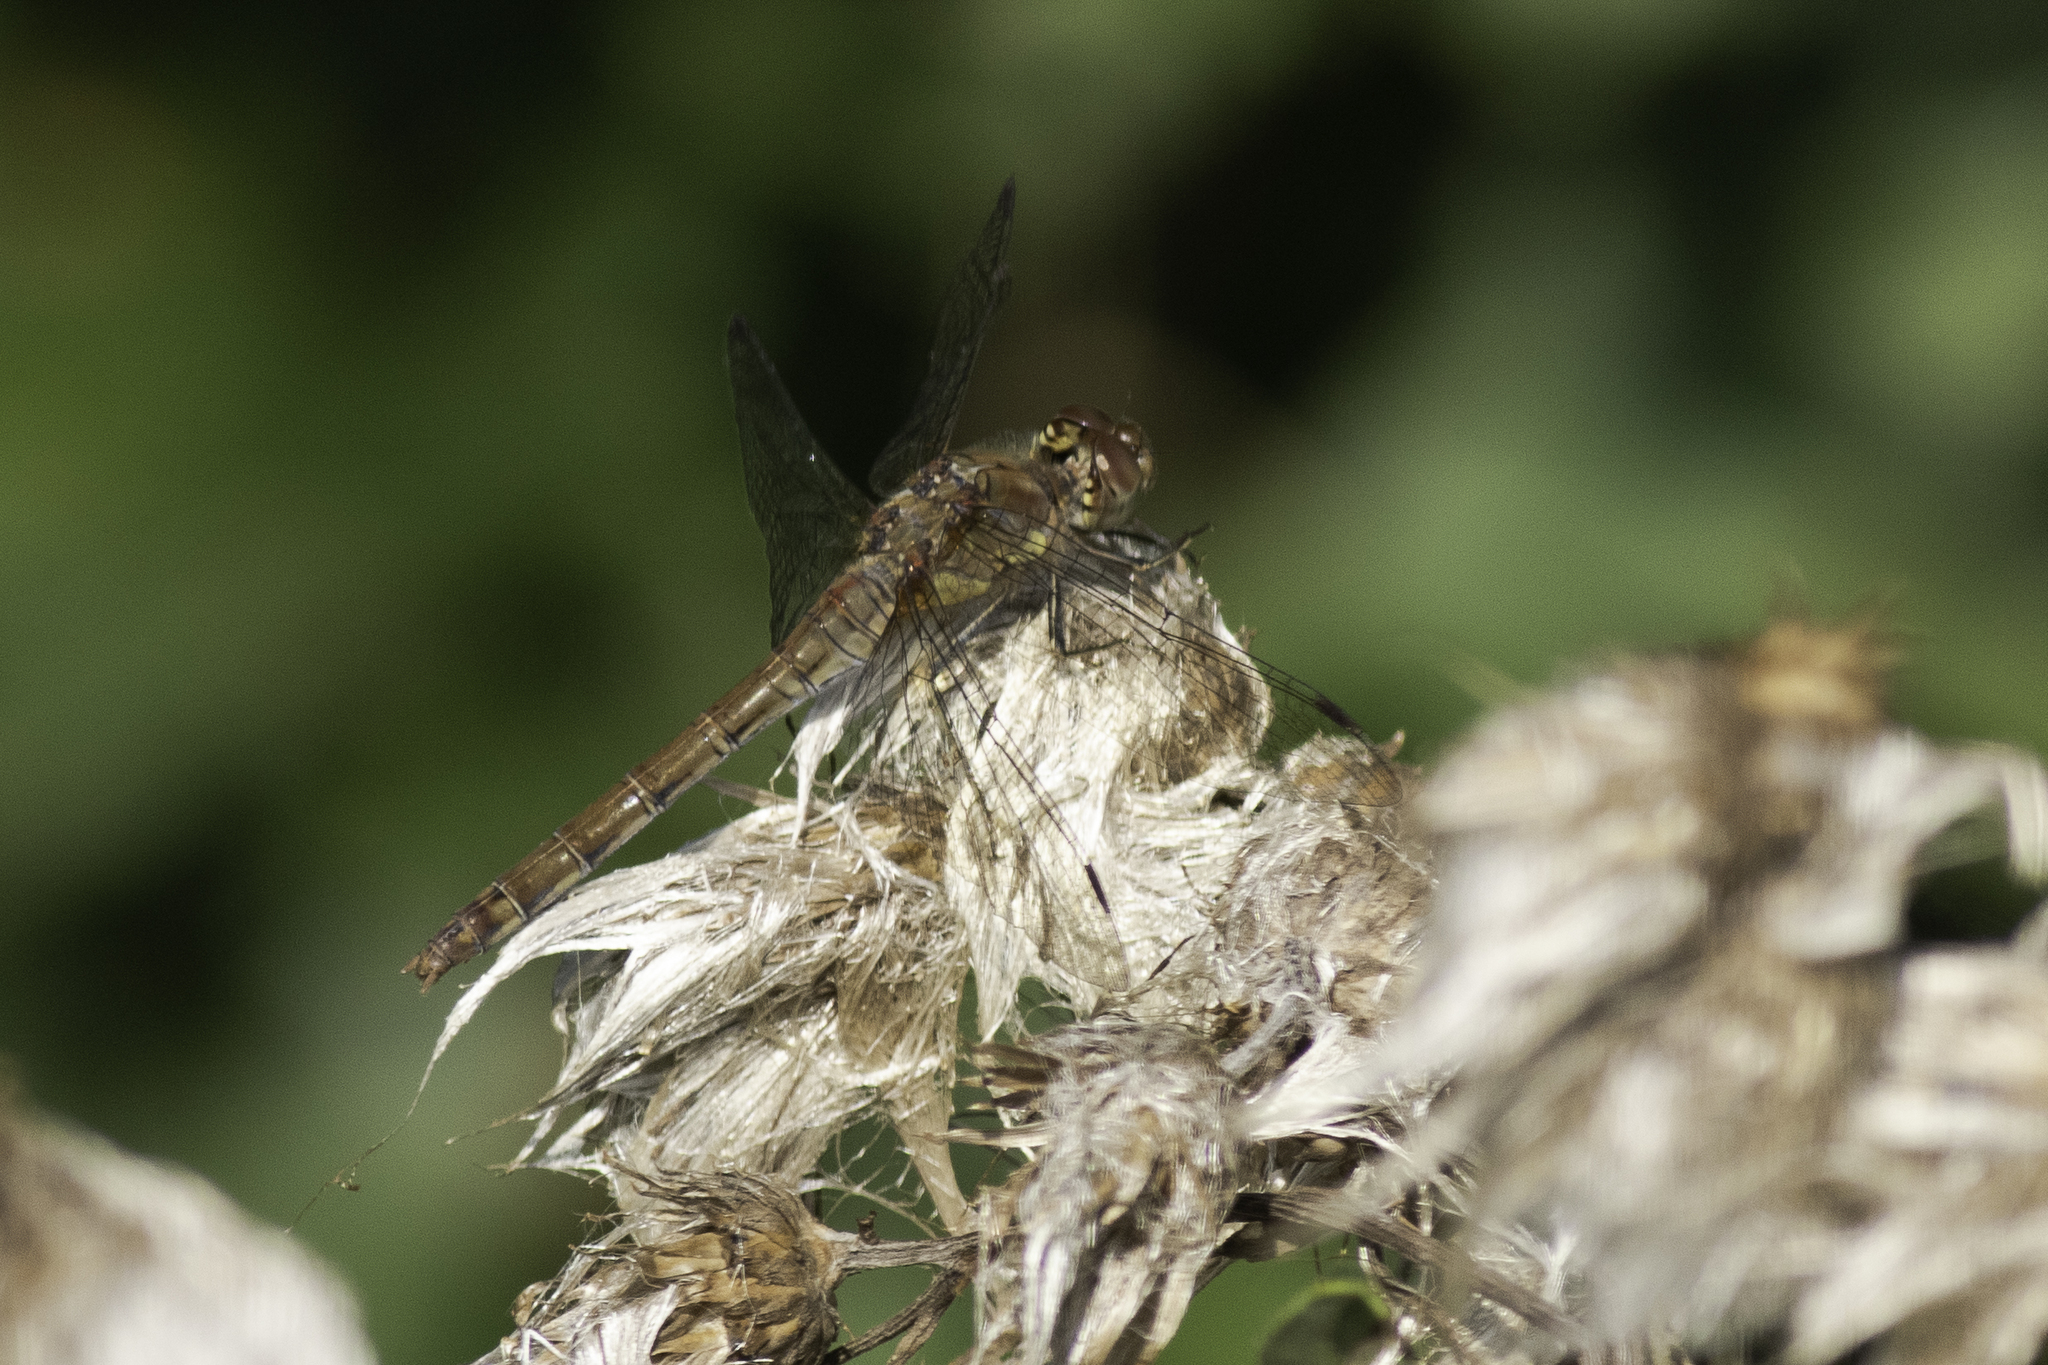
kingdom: Animalia
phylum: Arthropoda
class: Insecta
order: Odonata
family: Libellulidae
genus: Sympetrum
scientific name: Sympetrum striolatum
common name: Common darter
